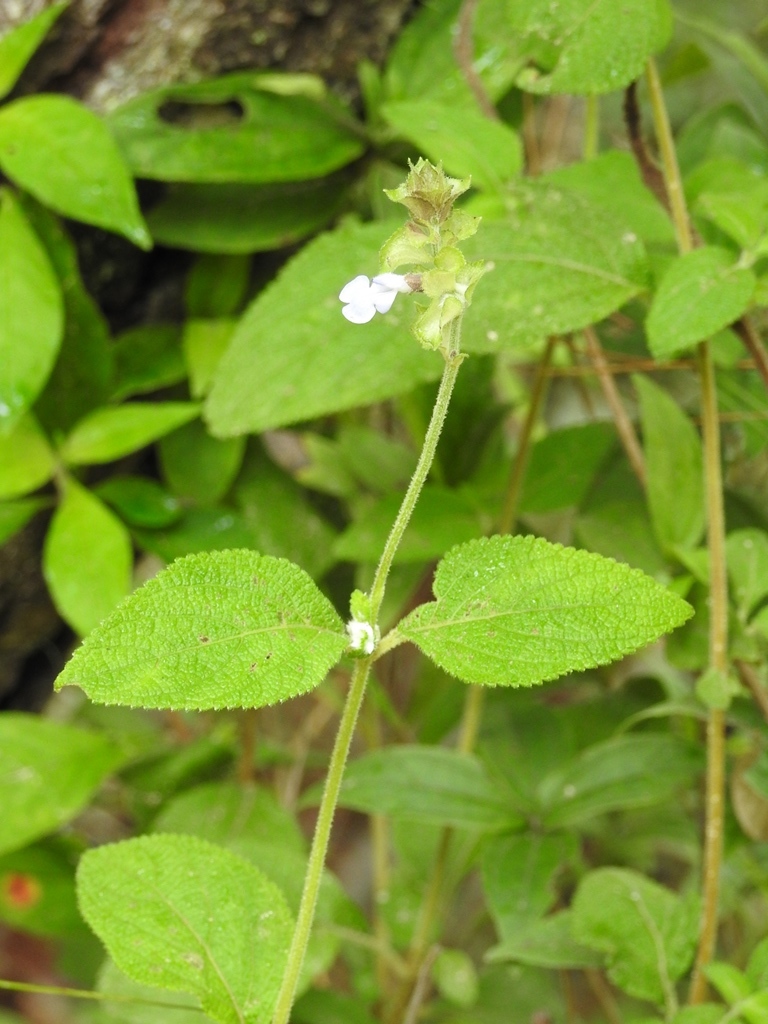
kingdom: Plantae
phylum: Tracheophyta
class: Magnoliopsida
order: Lamiales
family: Lamiaceae
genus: Salvia
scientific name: Salvia mocinoi
